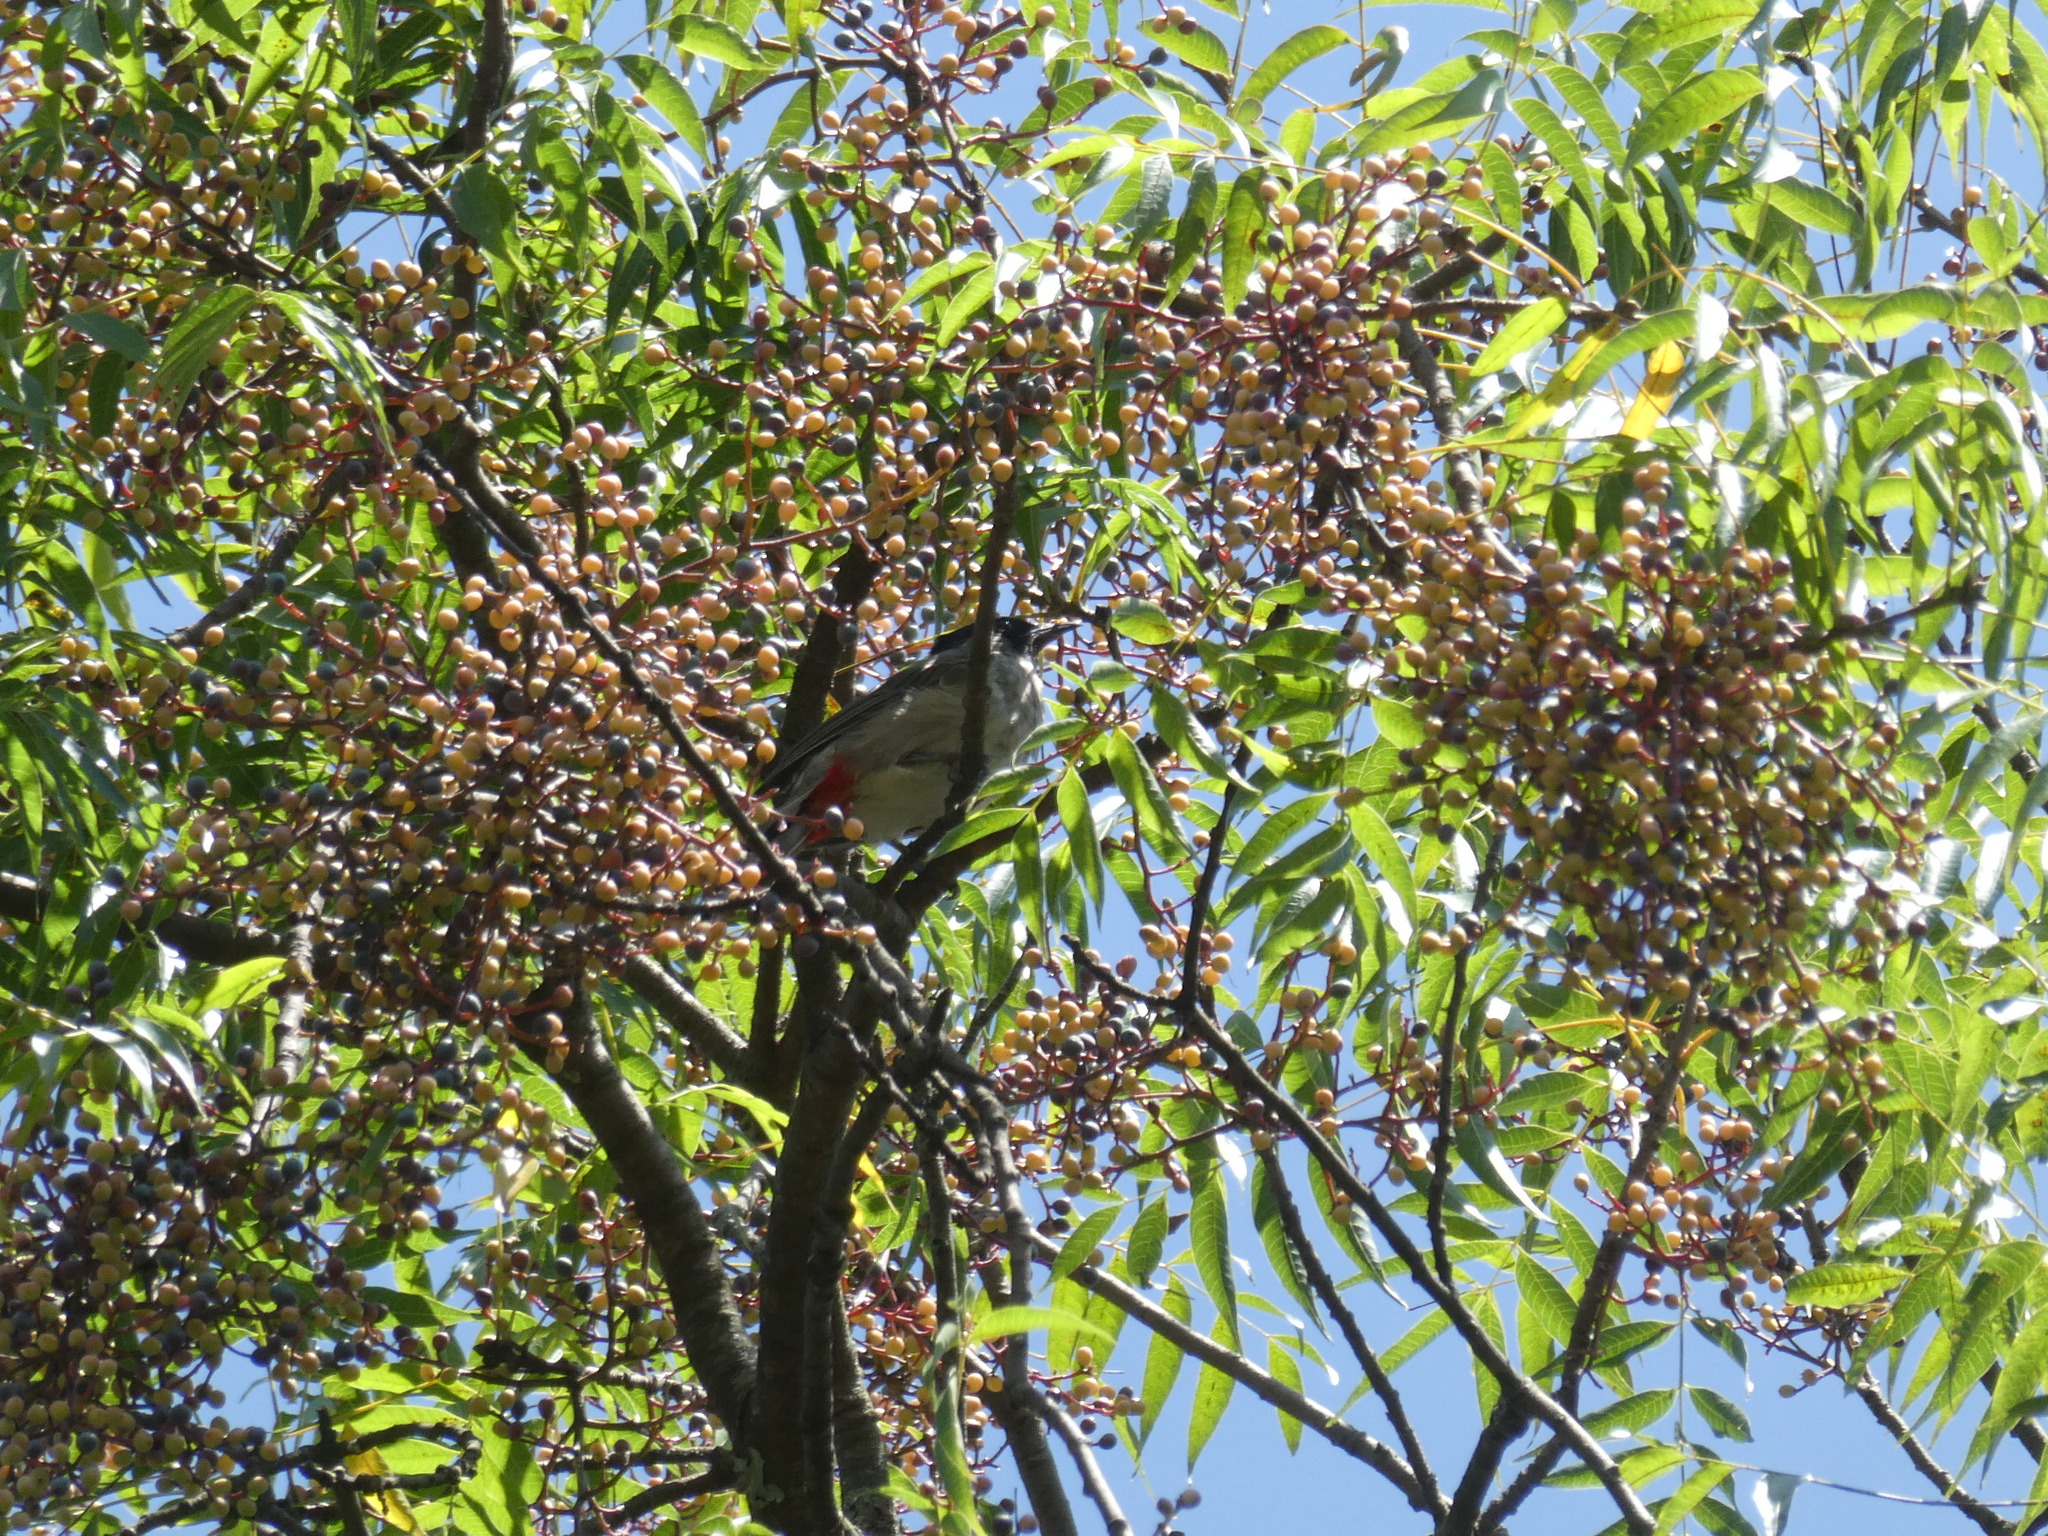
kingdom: Animalia
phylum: Chordata
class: Aves
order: Passeriformes
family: Pycnonotidae
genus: Pycnonotus
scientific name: Pycnonotus aurigaster
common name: Sooty-headed bulbul
